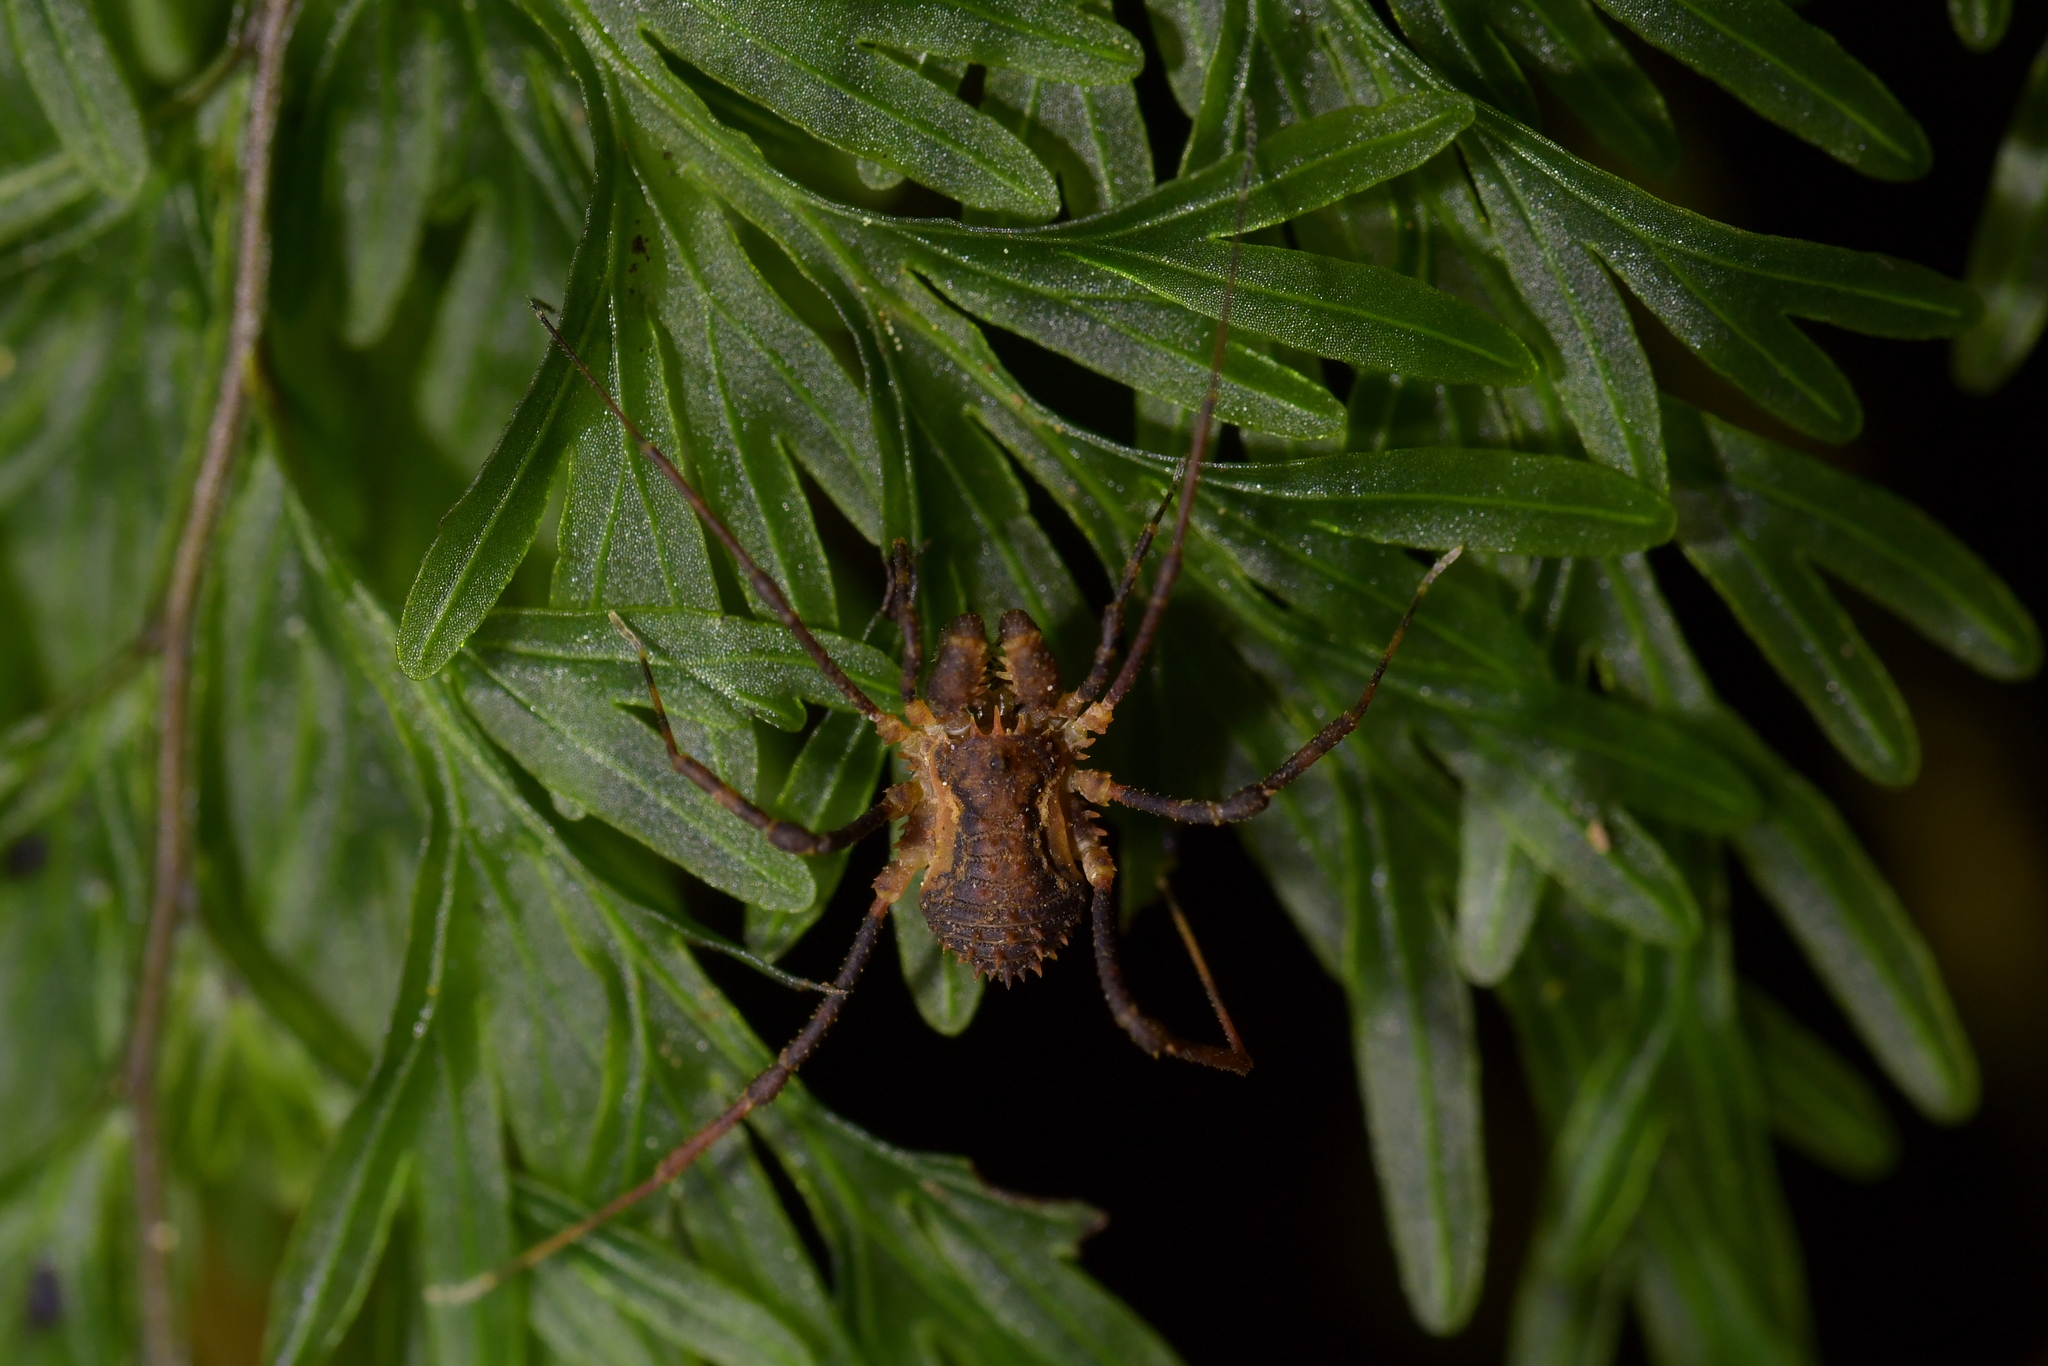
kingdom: Animalia
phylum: Arthropoda
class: Arachnida
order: Opiliones
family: Triaenonychidae
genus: Algidia
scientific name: Algidia chiltoni
